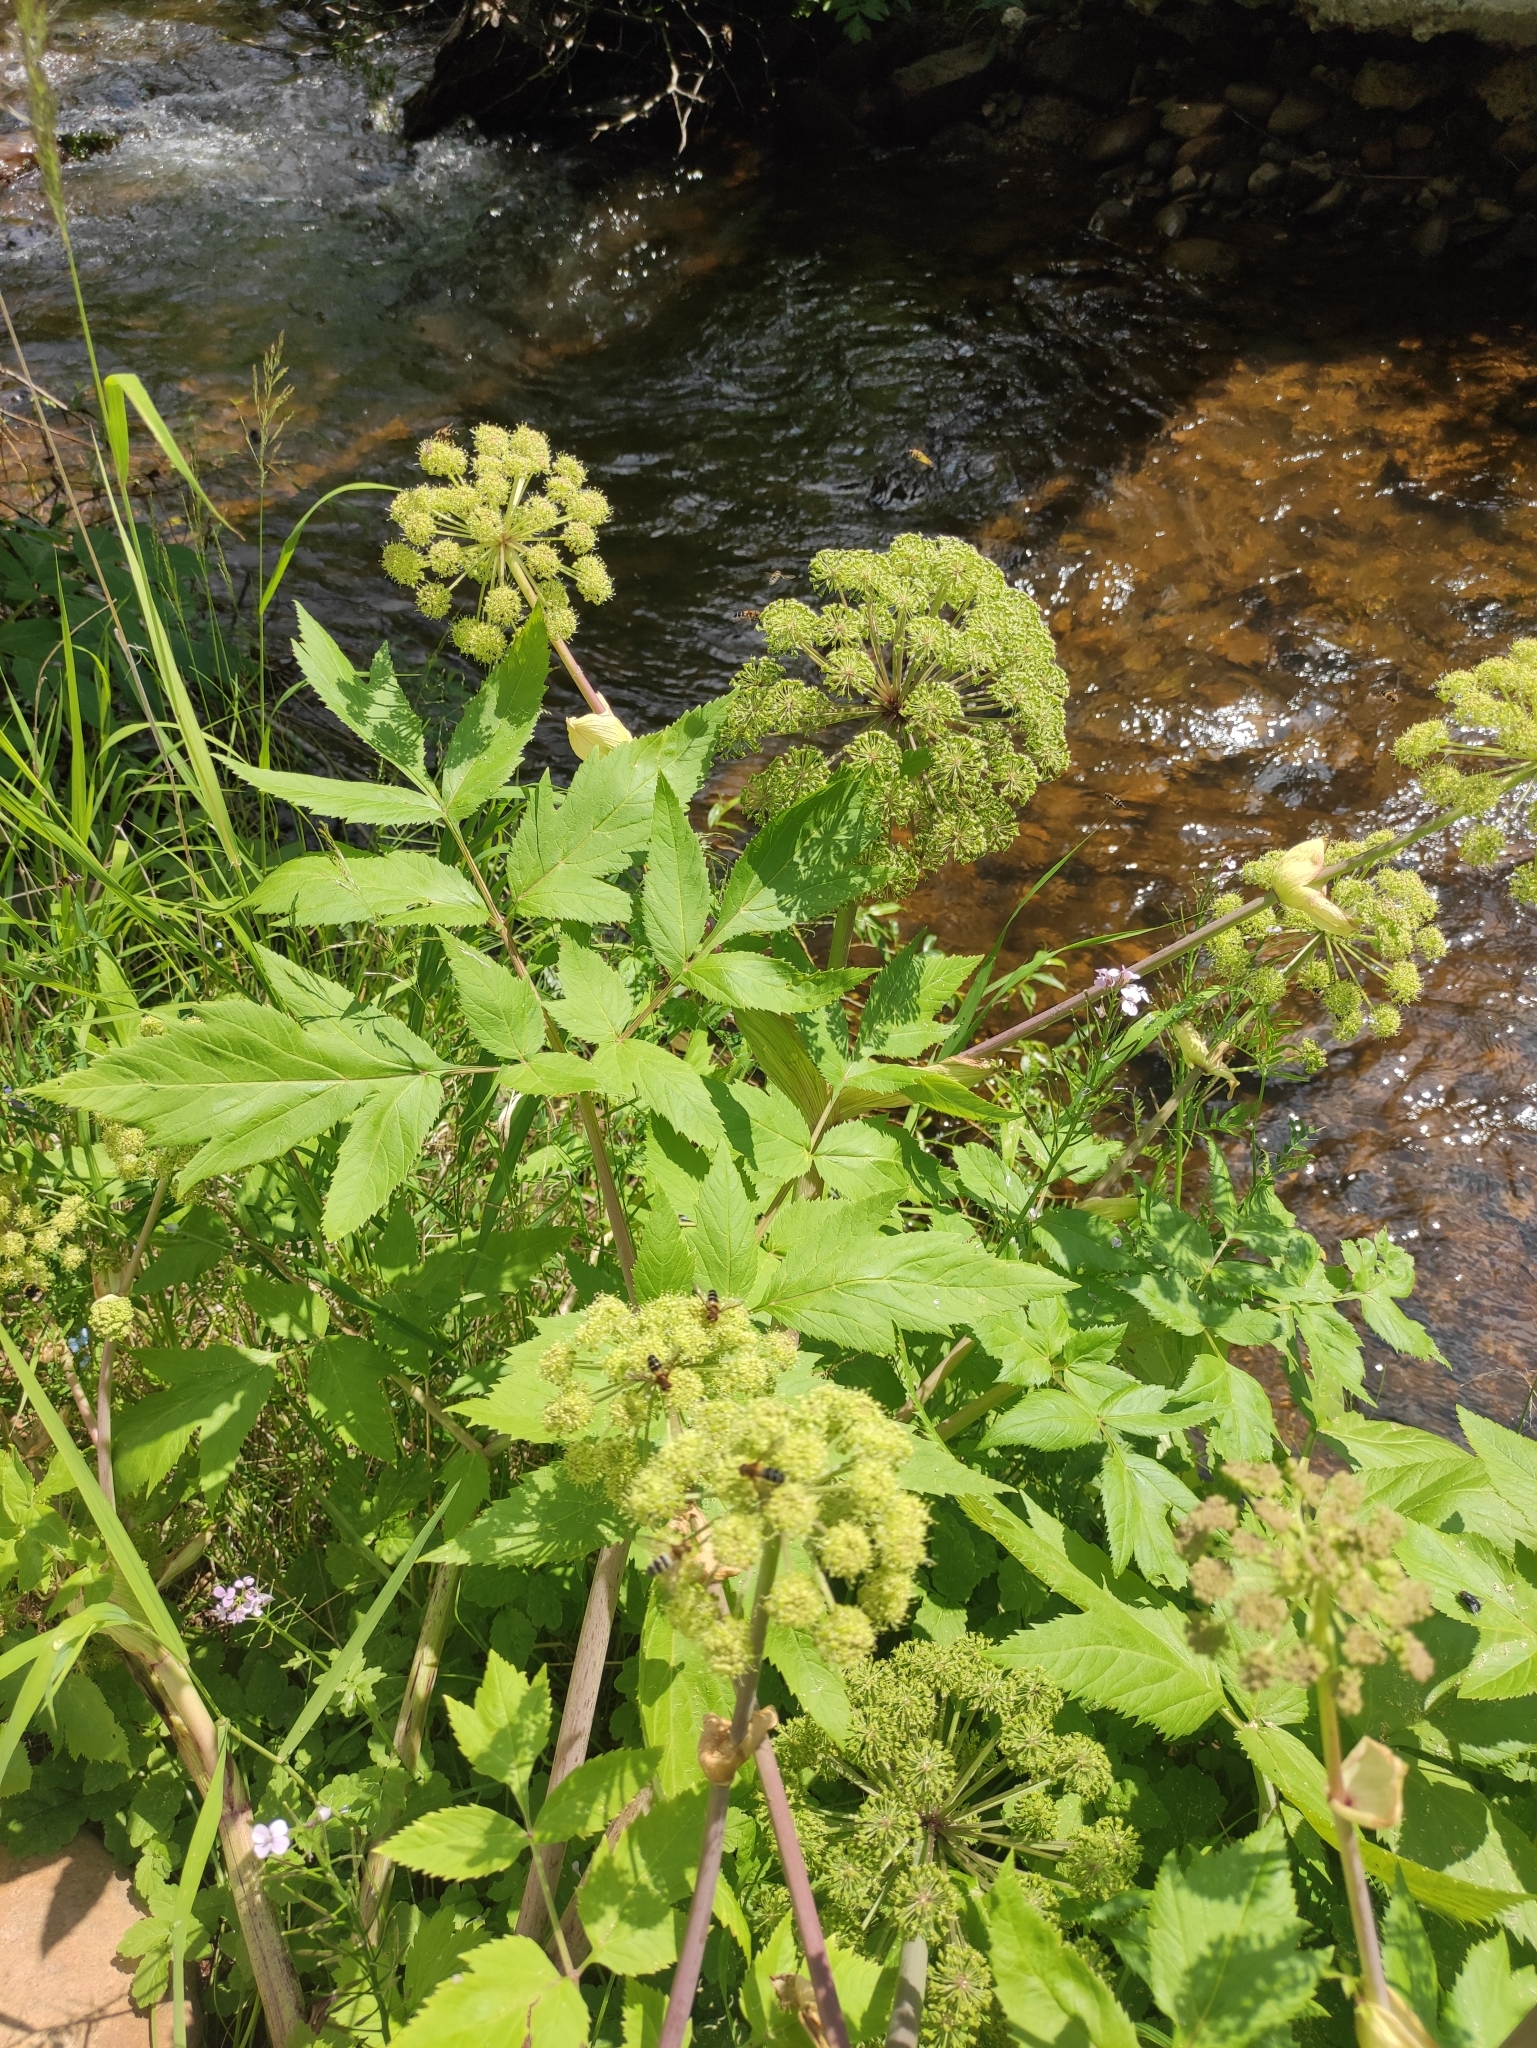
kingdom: Plantae
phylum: Tracheophyta
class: Magnoliopsida
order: Apiales
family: Apiaceae
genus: Angelica
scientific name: Angelica decurrens
